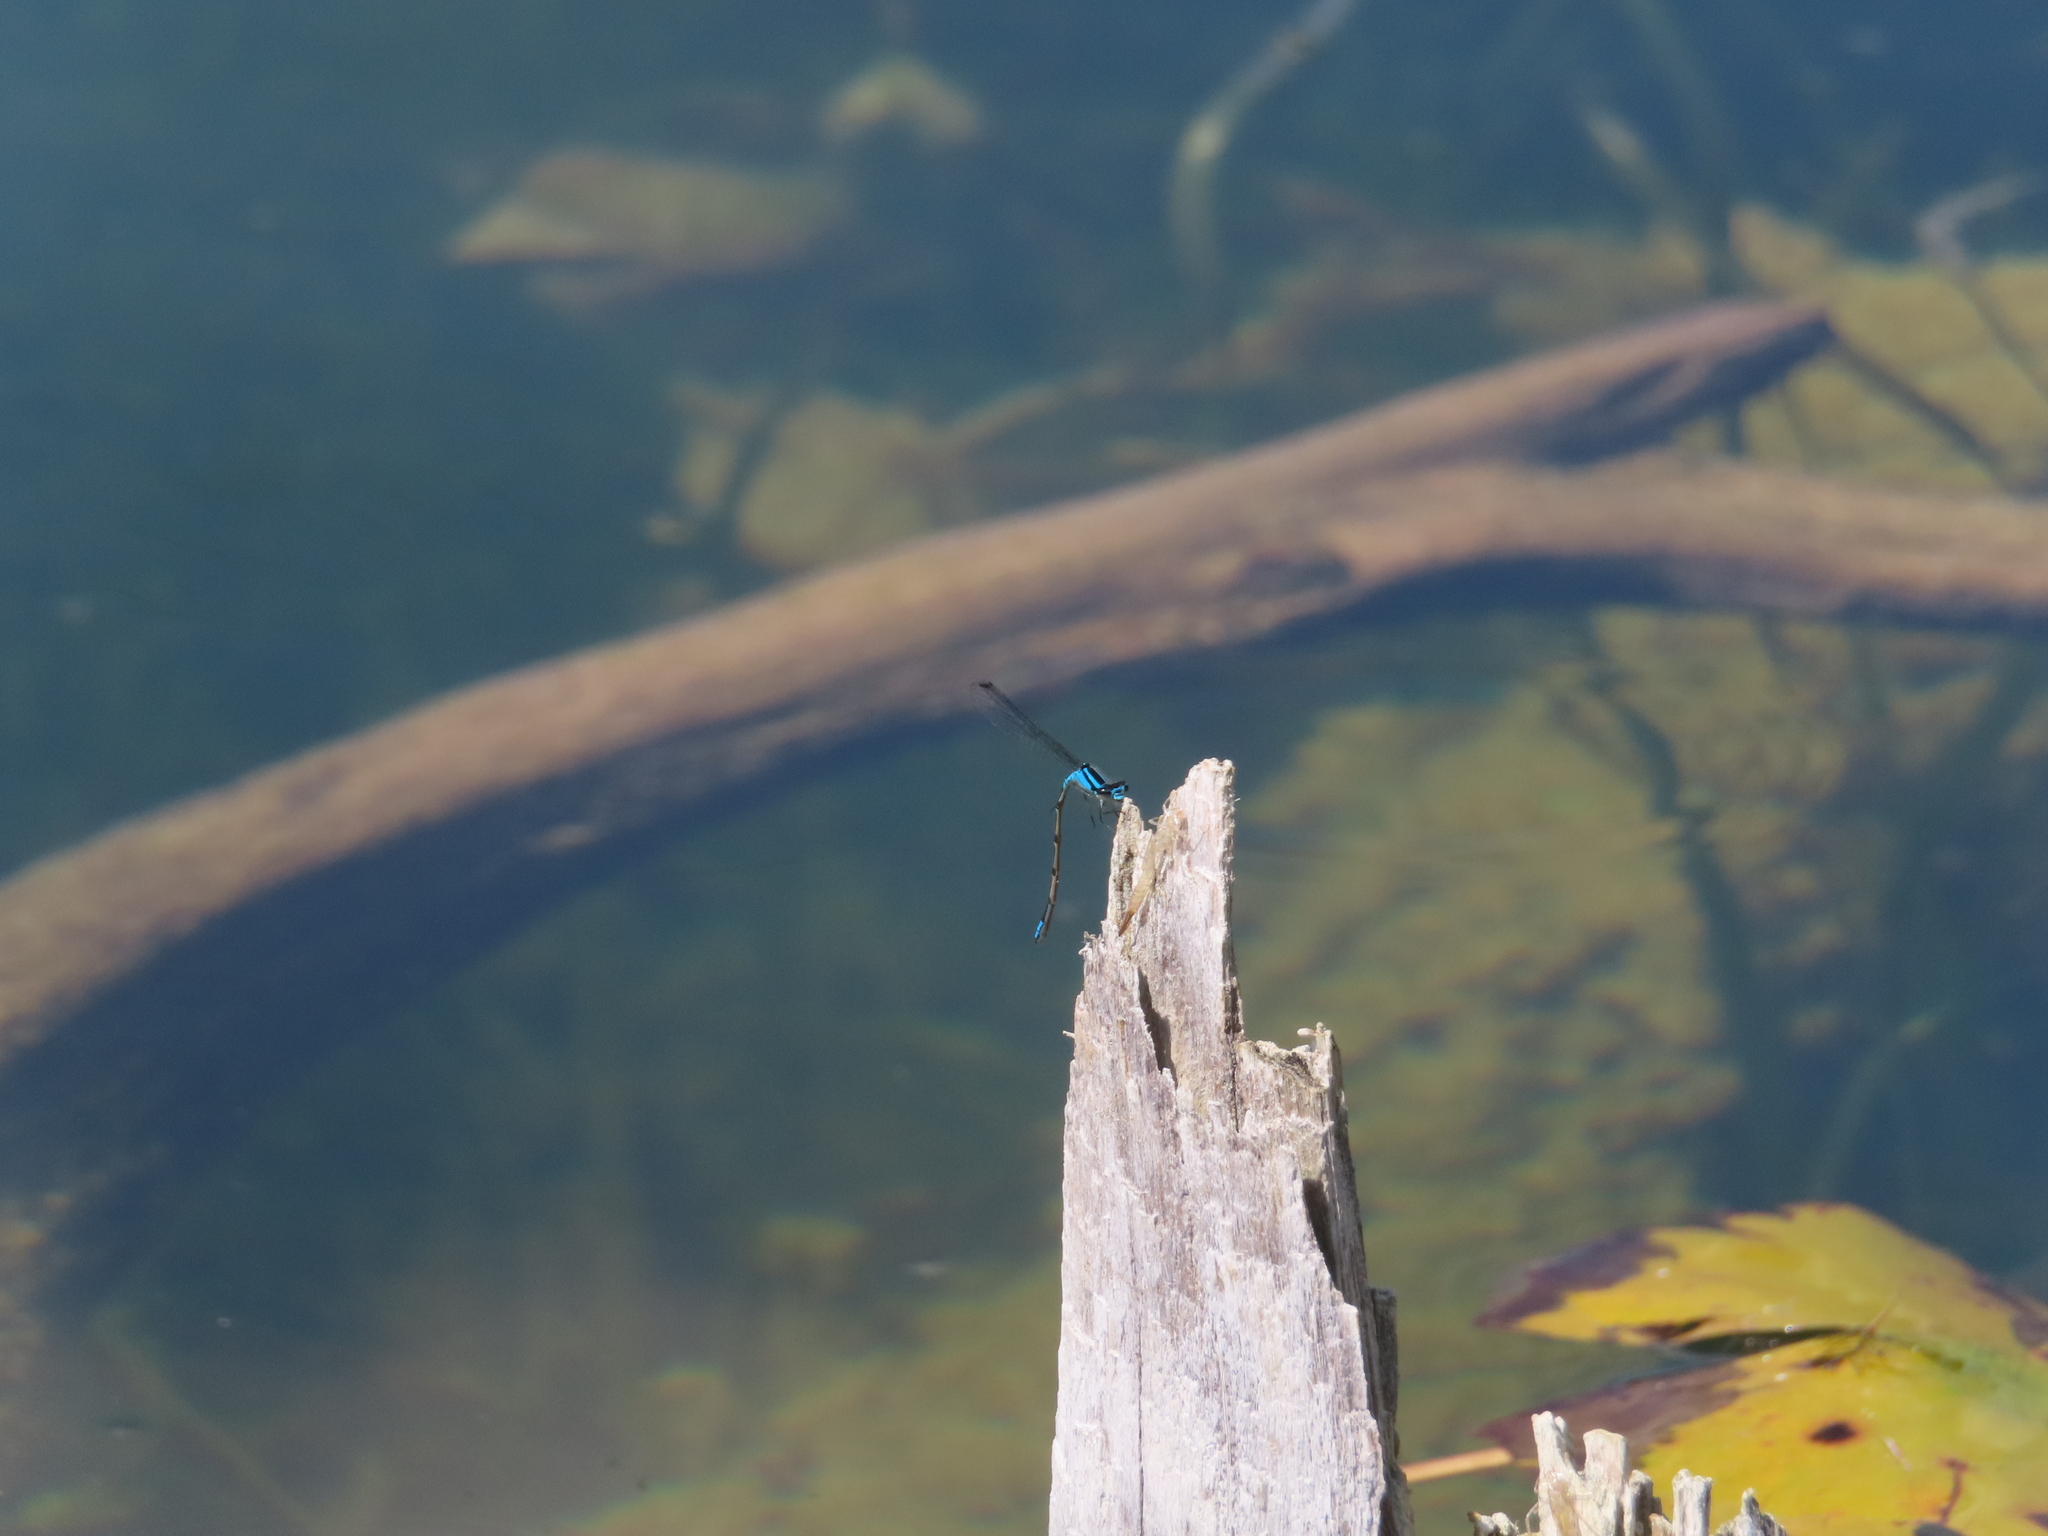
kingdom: Animalia
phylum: Arthropoda
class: Insecta
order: Odonata
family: Coenagrionidae
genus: Enallagma
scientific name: Enallagma geminatum
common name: Skimming bluet
